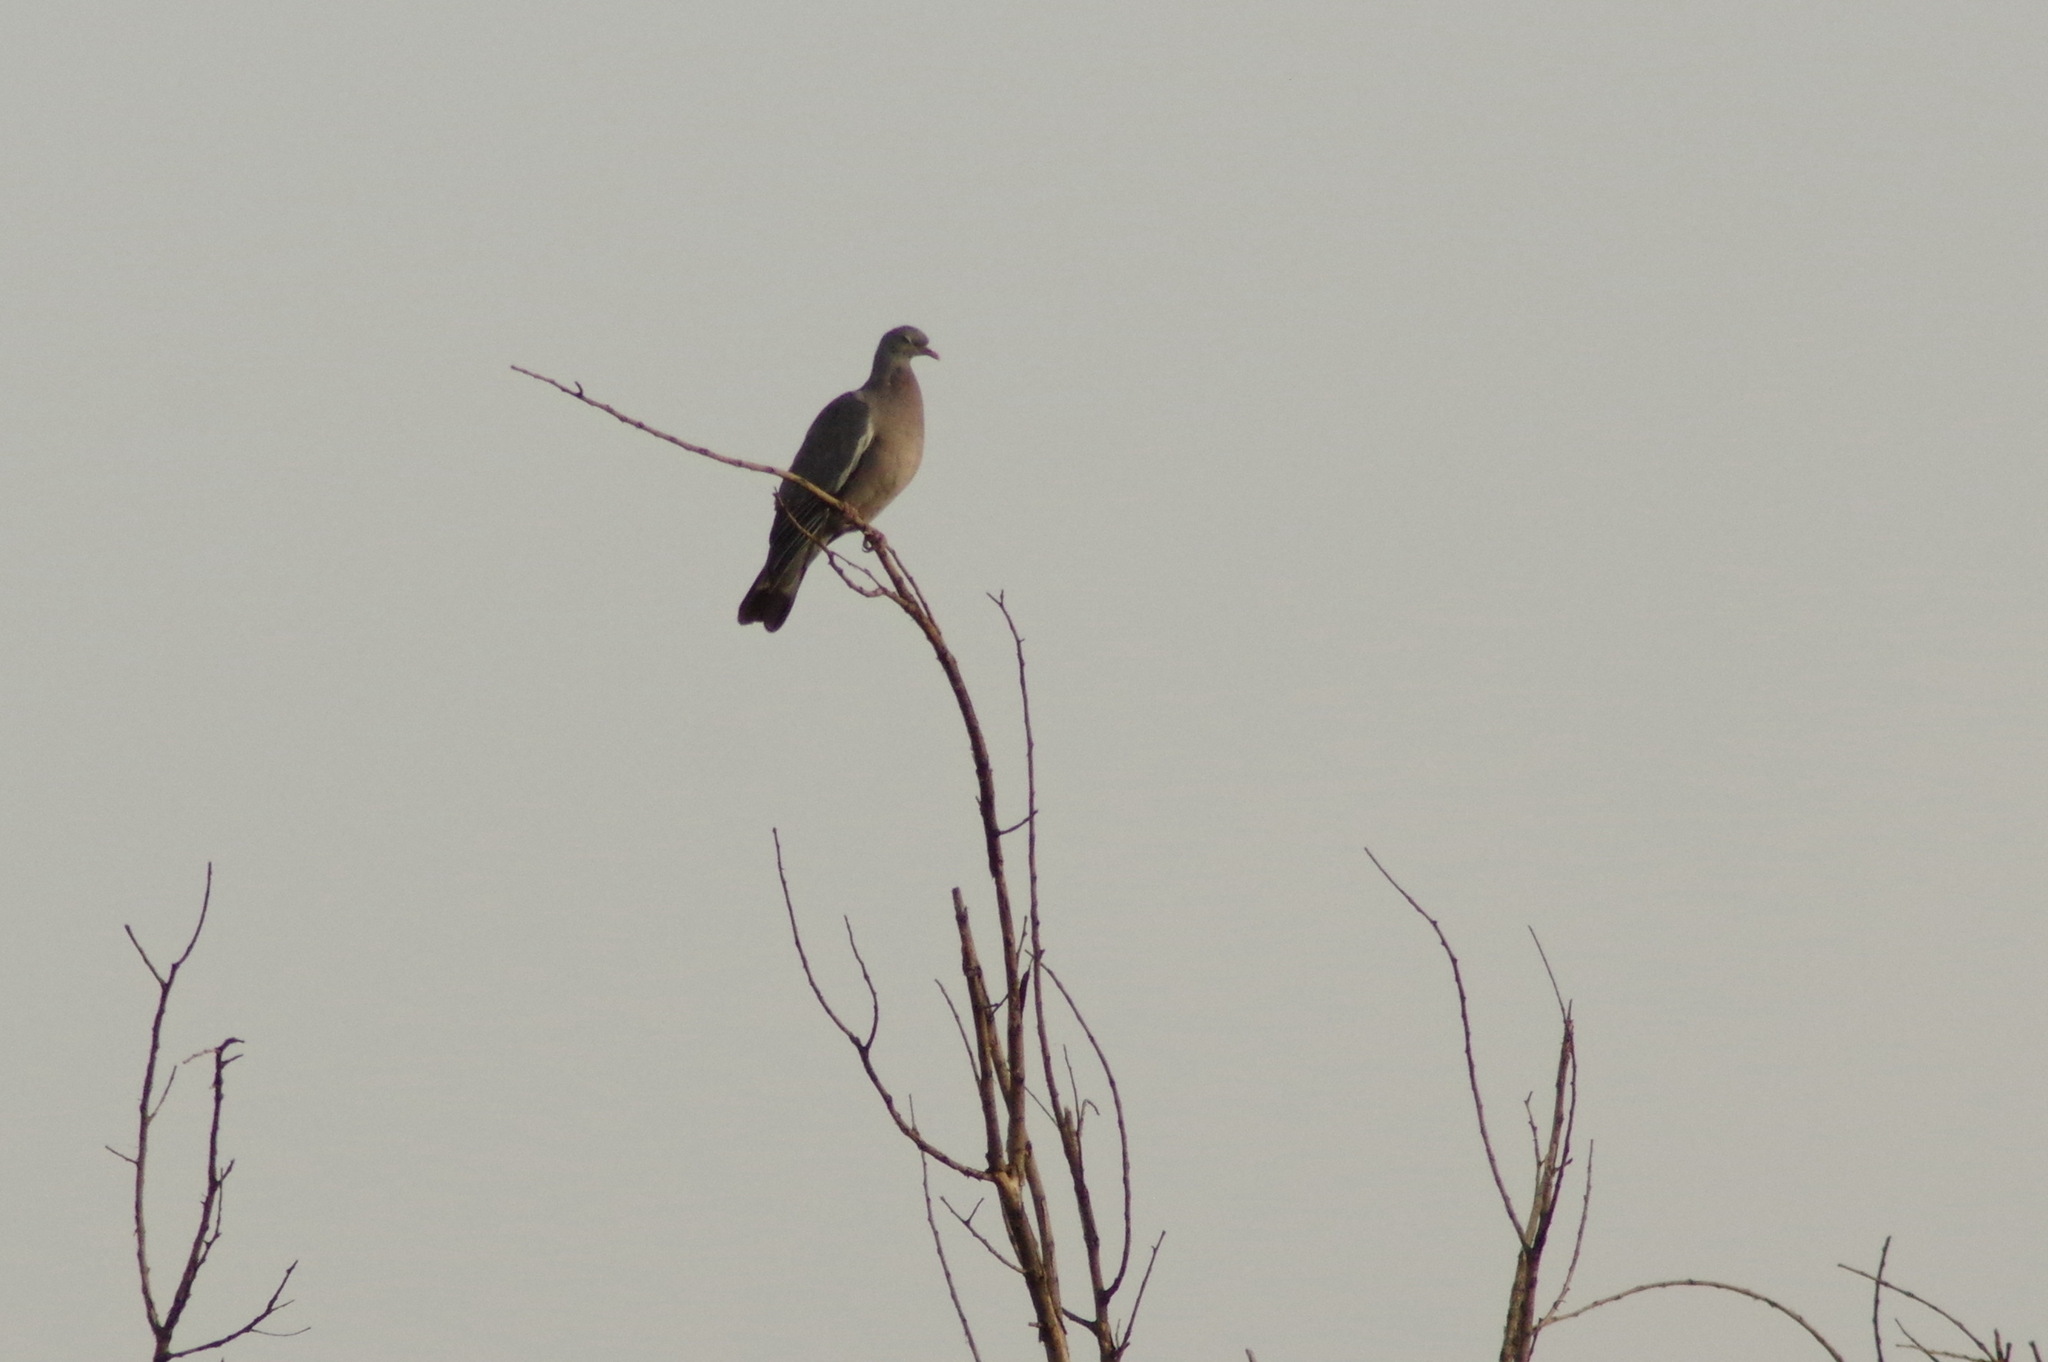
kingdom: Animalia
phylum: Chordata
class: Aves
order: Columbiformes
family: Columbidae
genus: Columba
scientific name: Columba palumbus
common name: Common wood pigeon
